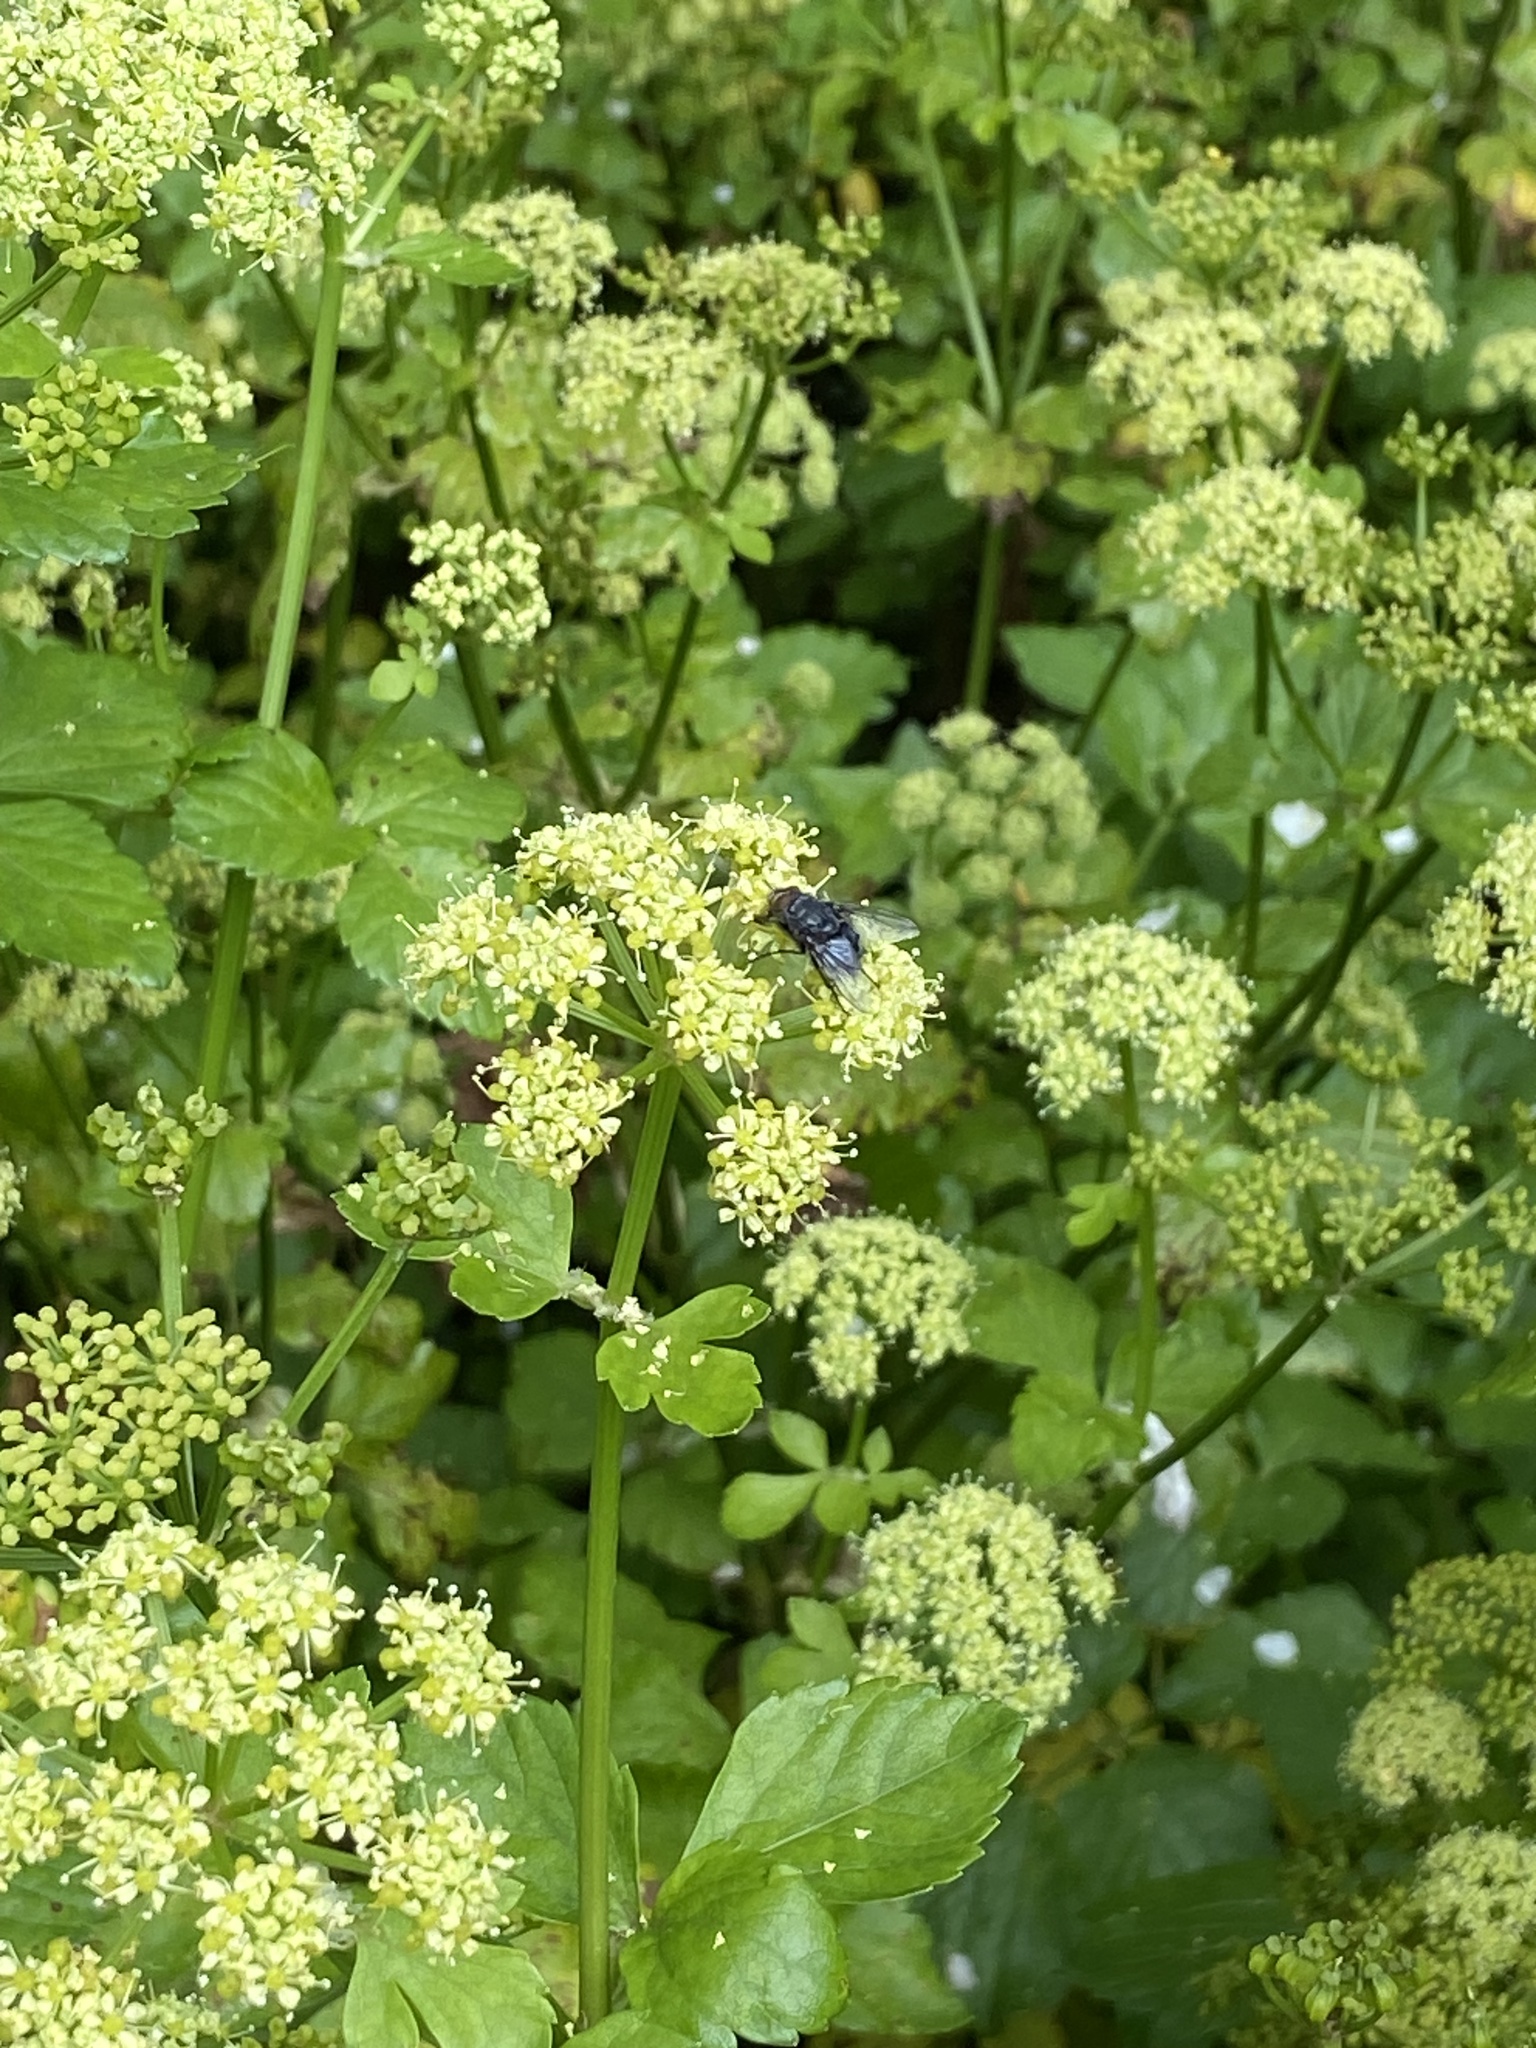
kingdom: Plantae
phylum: Tracheophyta
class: Magnoliopsida
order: Apiales
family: Apiaceae
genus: Smyrnium
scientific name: Smyrnium olusatrum
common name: Alexanders
